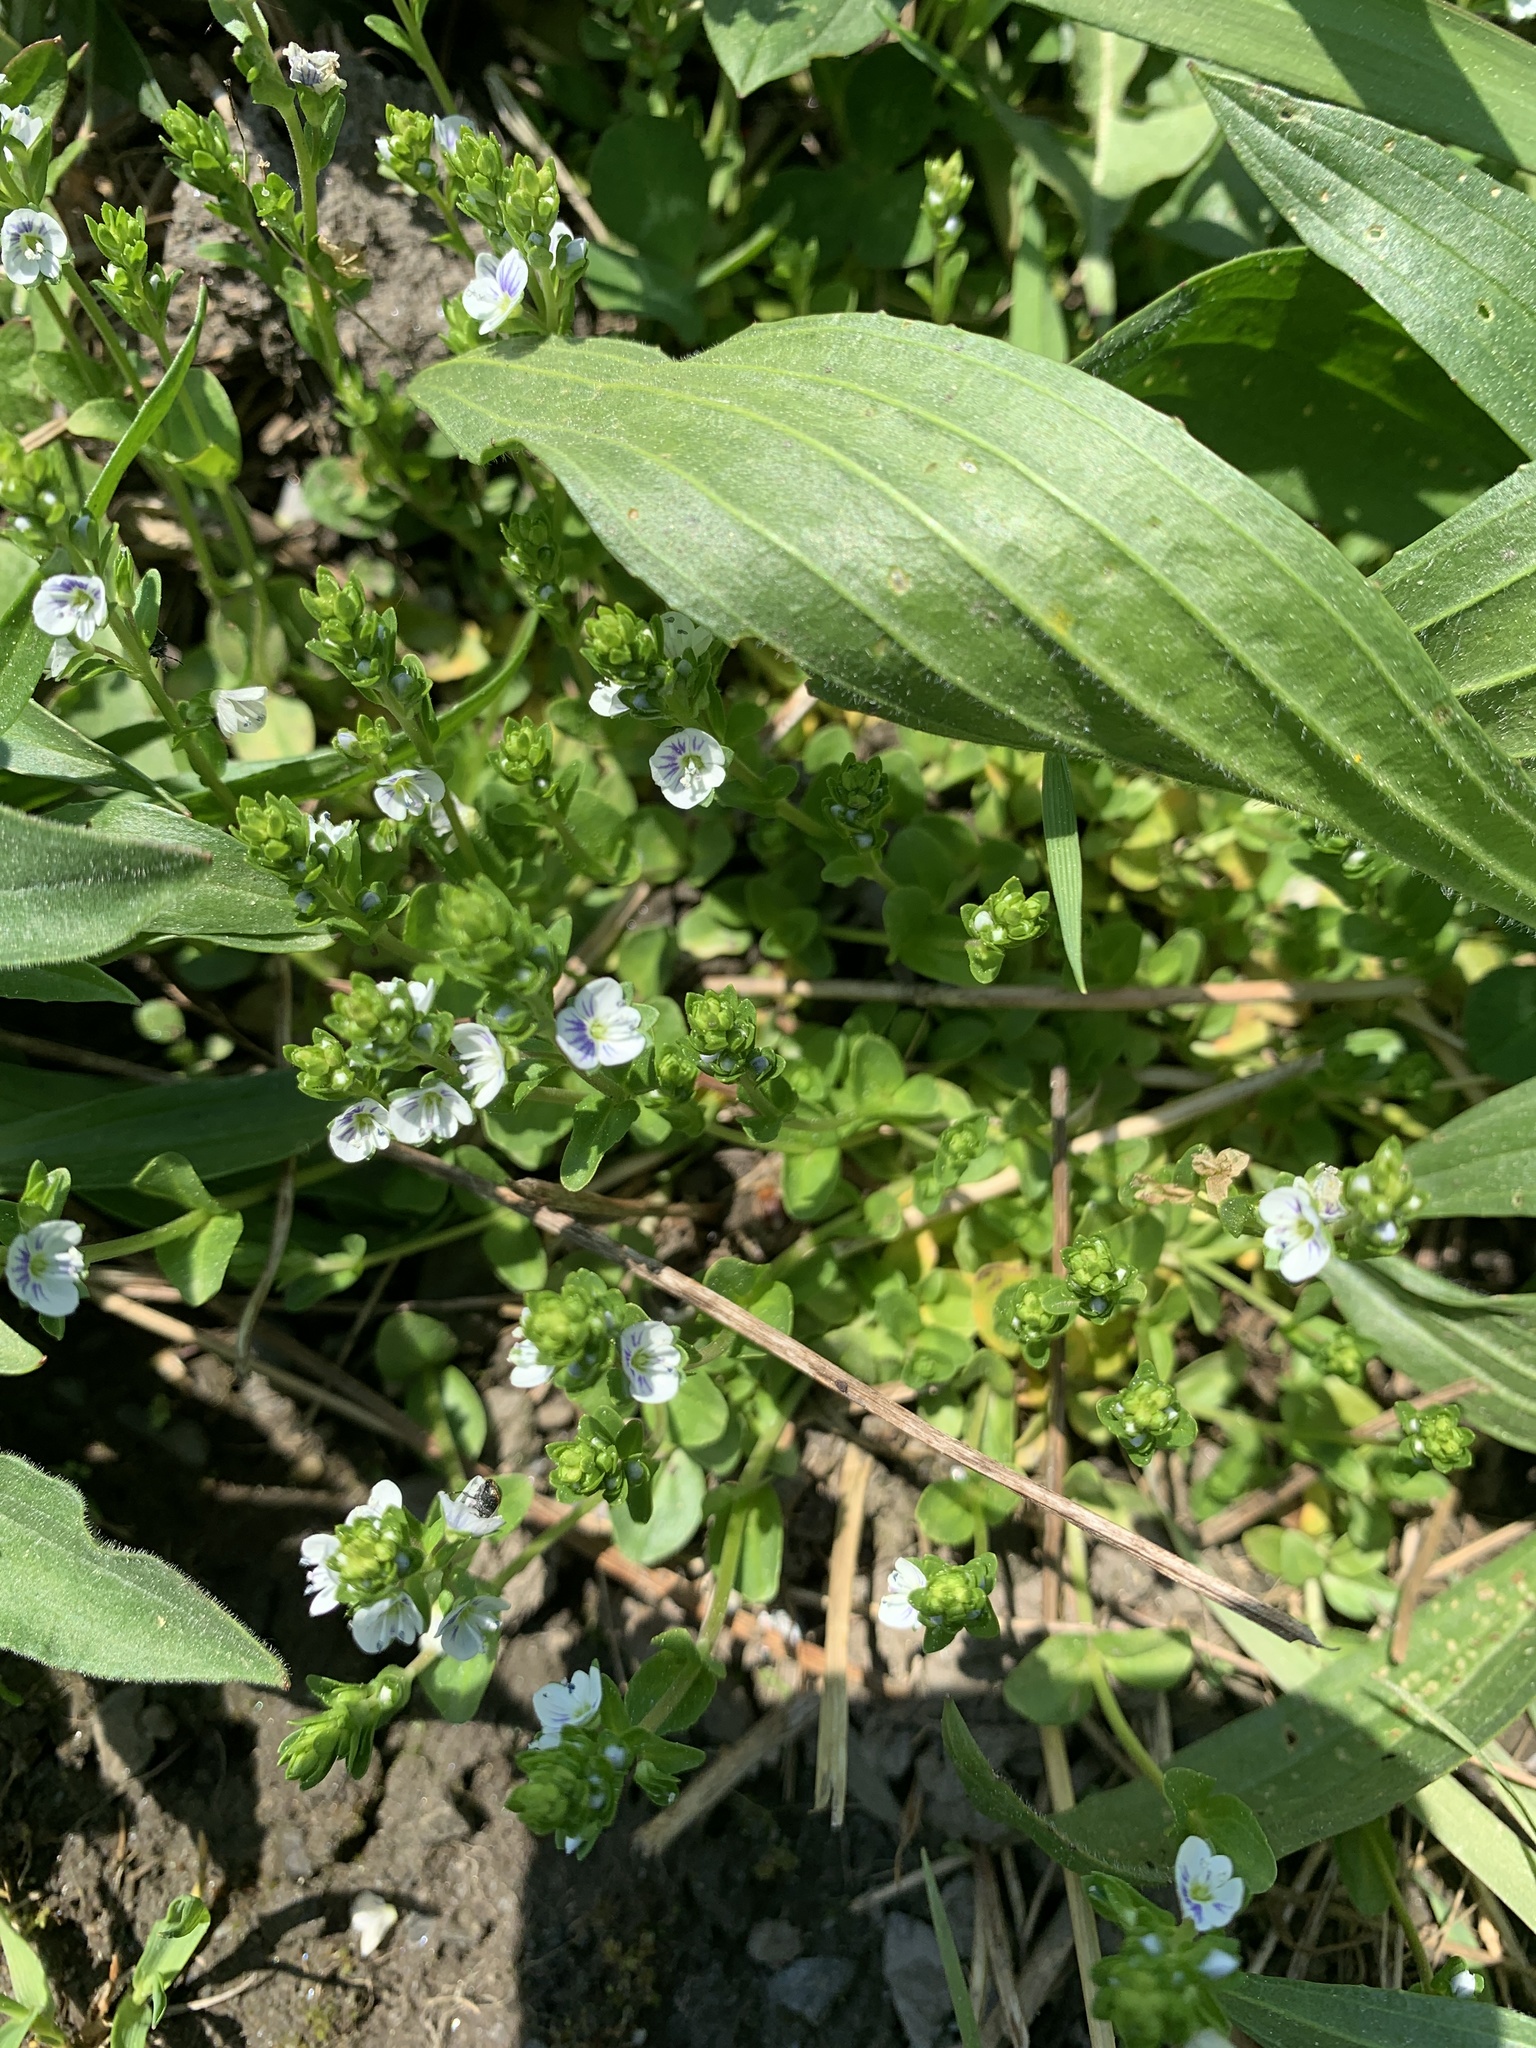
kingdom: Plantae
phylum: Tracheophyta
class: Magnoliopsida
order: Lamiales
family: Plantaginaceae
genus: Veronica
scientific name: Veronica serpyllifolia
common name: Thyme-leaved speedwell
